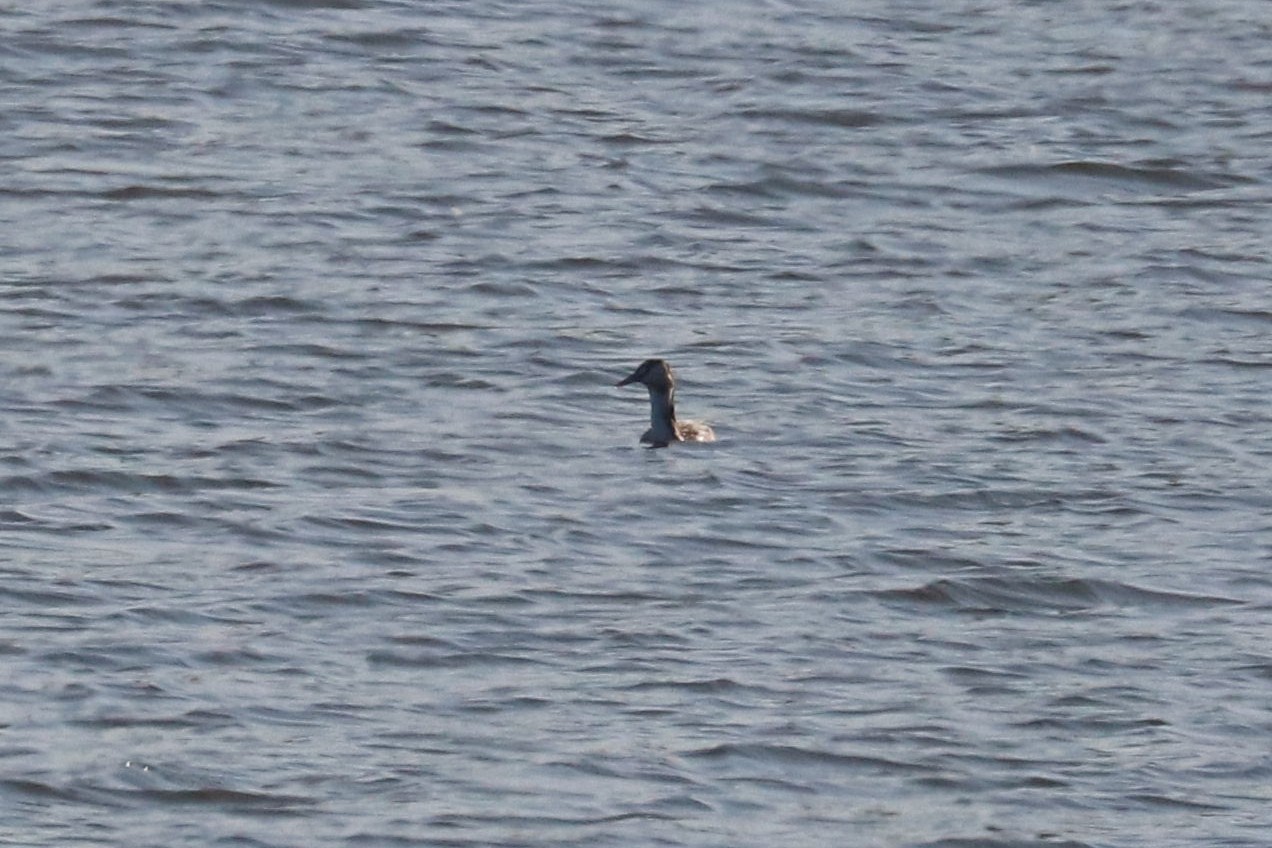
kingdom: Animalia
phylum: Chordata
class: Aves
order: Podicipediformes
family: Podicipedidae
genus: Podiceps
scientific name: Podiceps cristatus
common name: Great crested grebe
